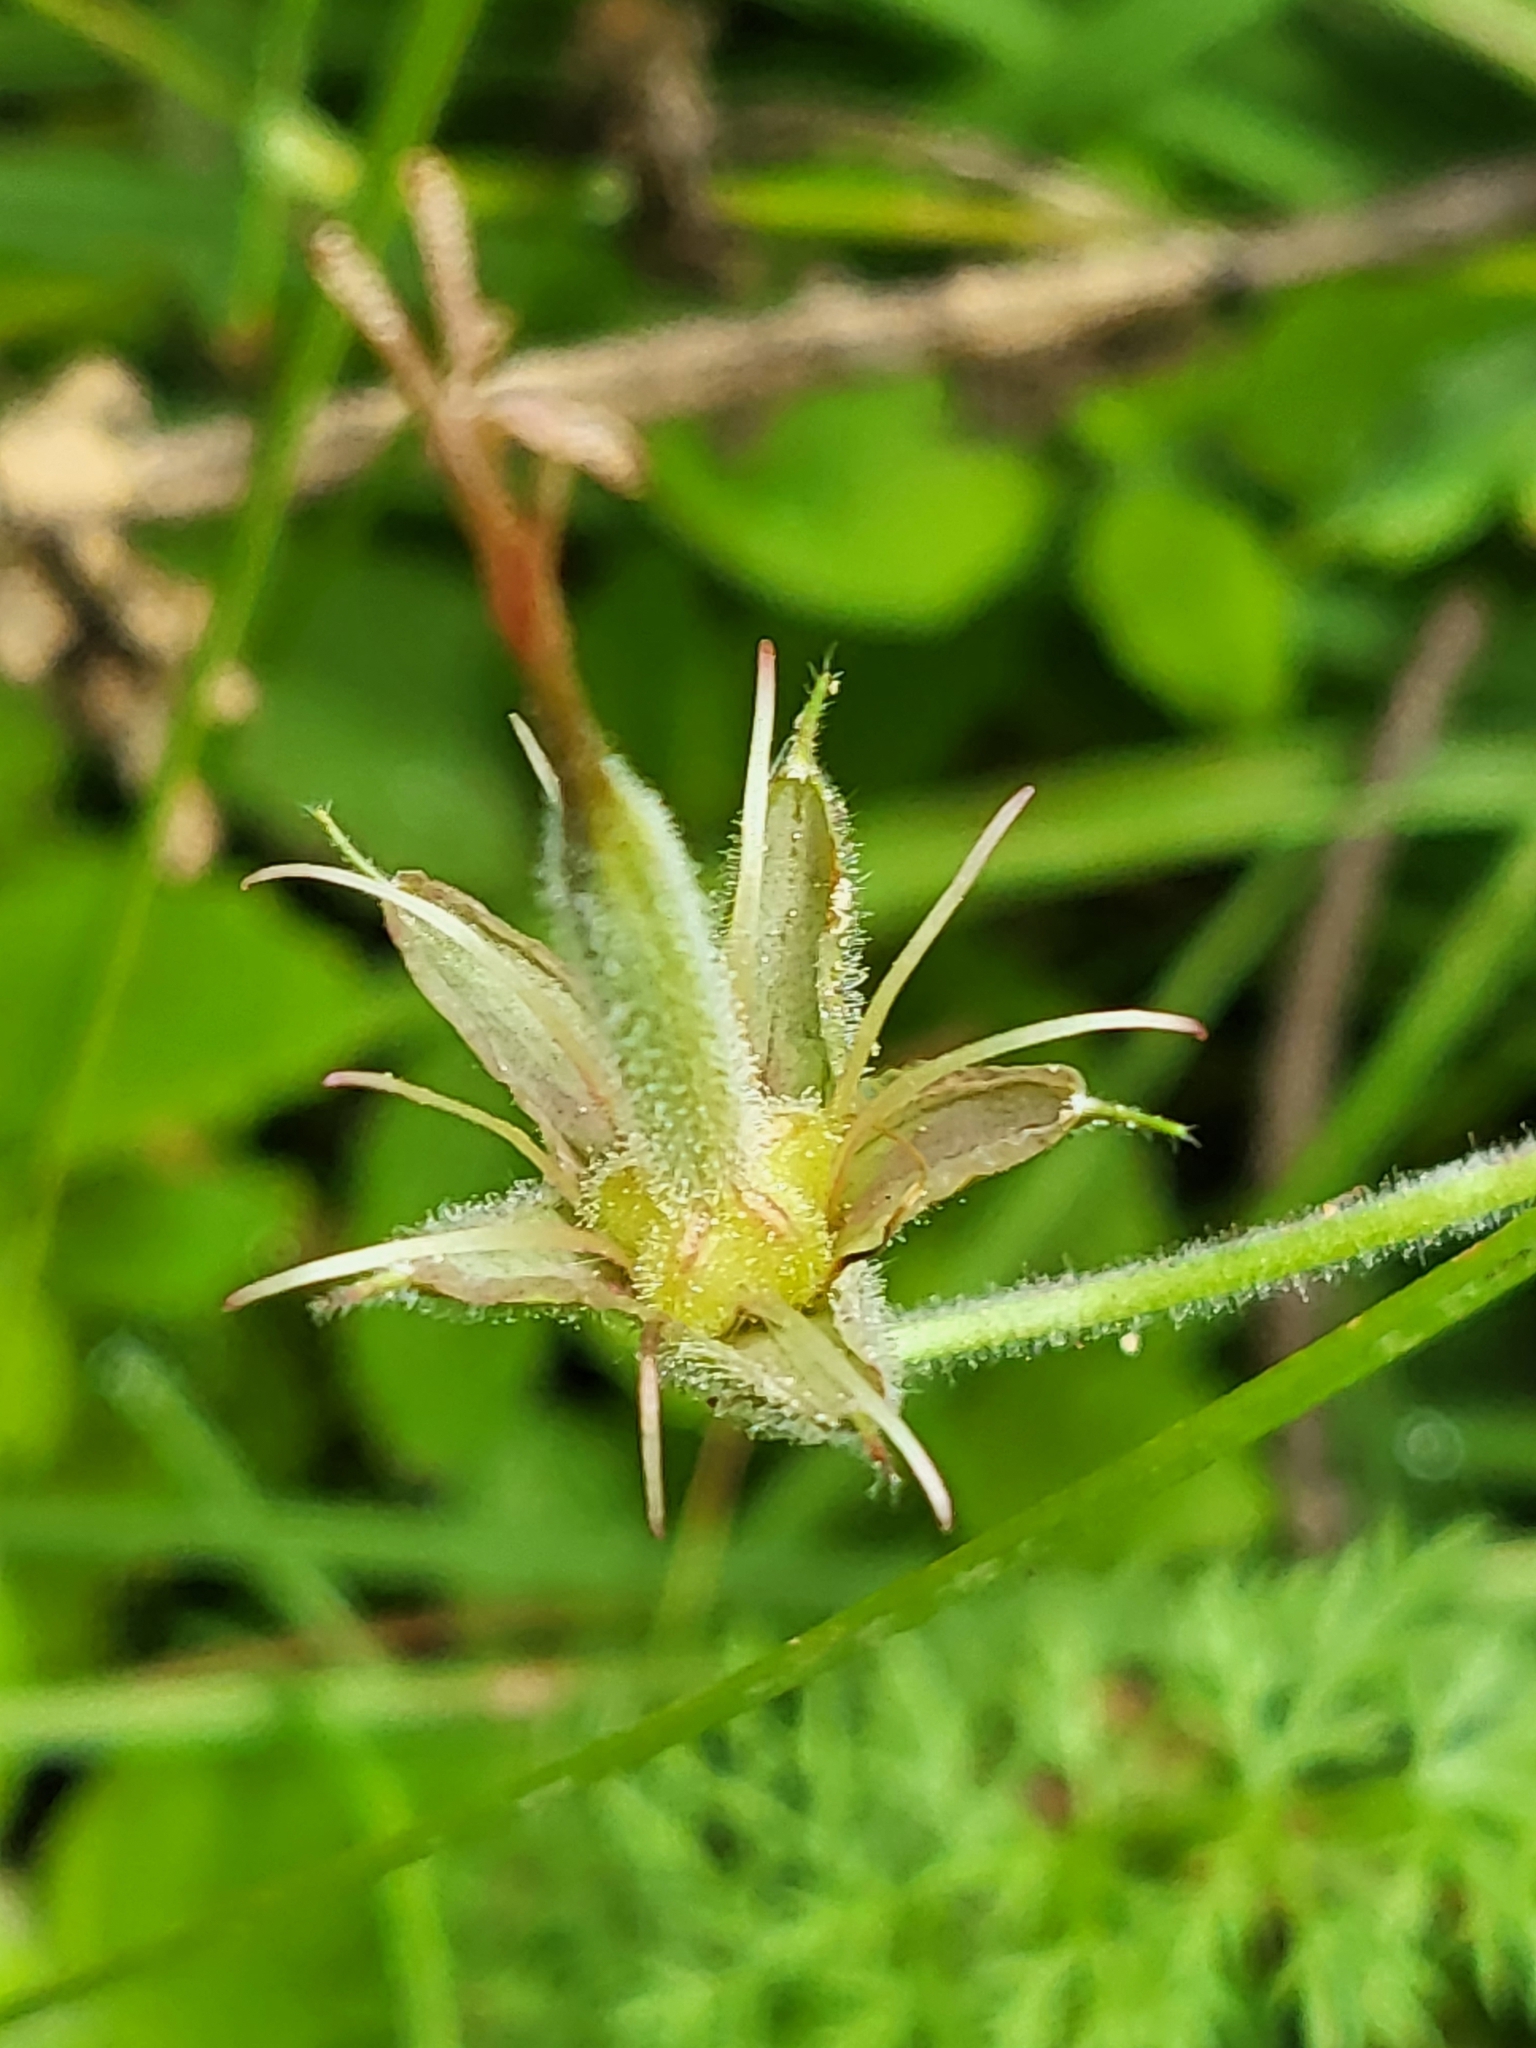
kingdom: Plantae
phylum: Tracheophyta
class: Magnoliopsida
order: Geraniales
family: Geraniaceae
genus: Geranium
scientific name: Geranium californicum
